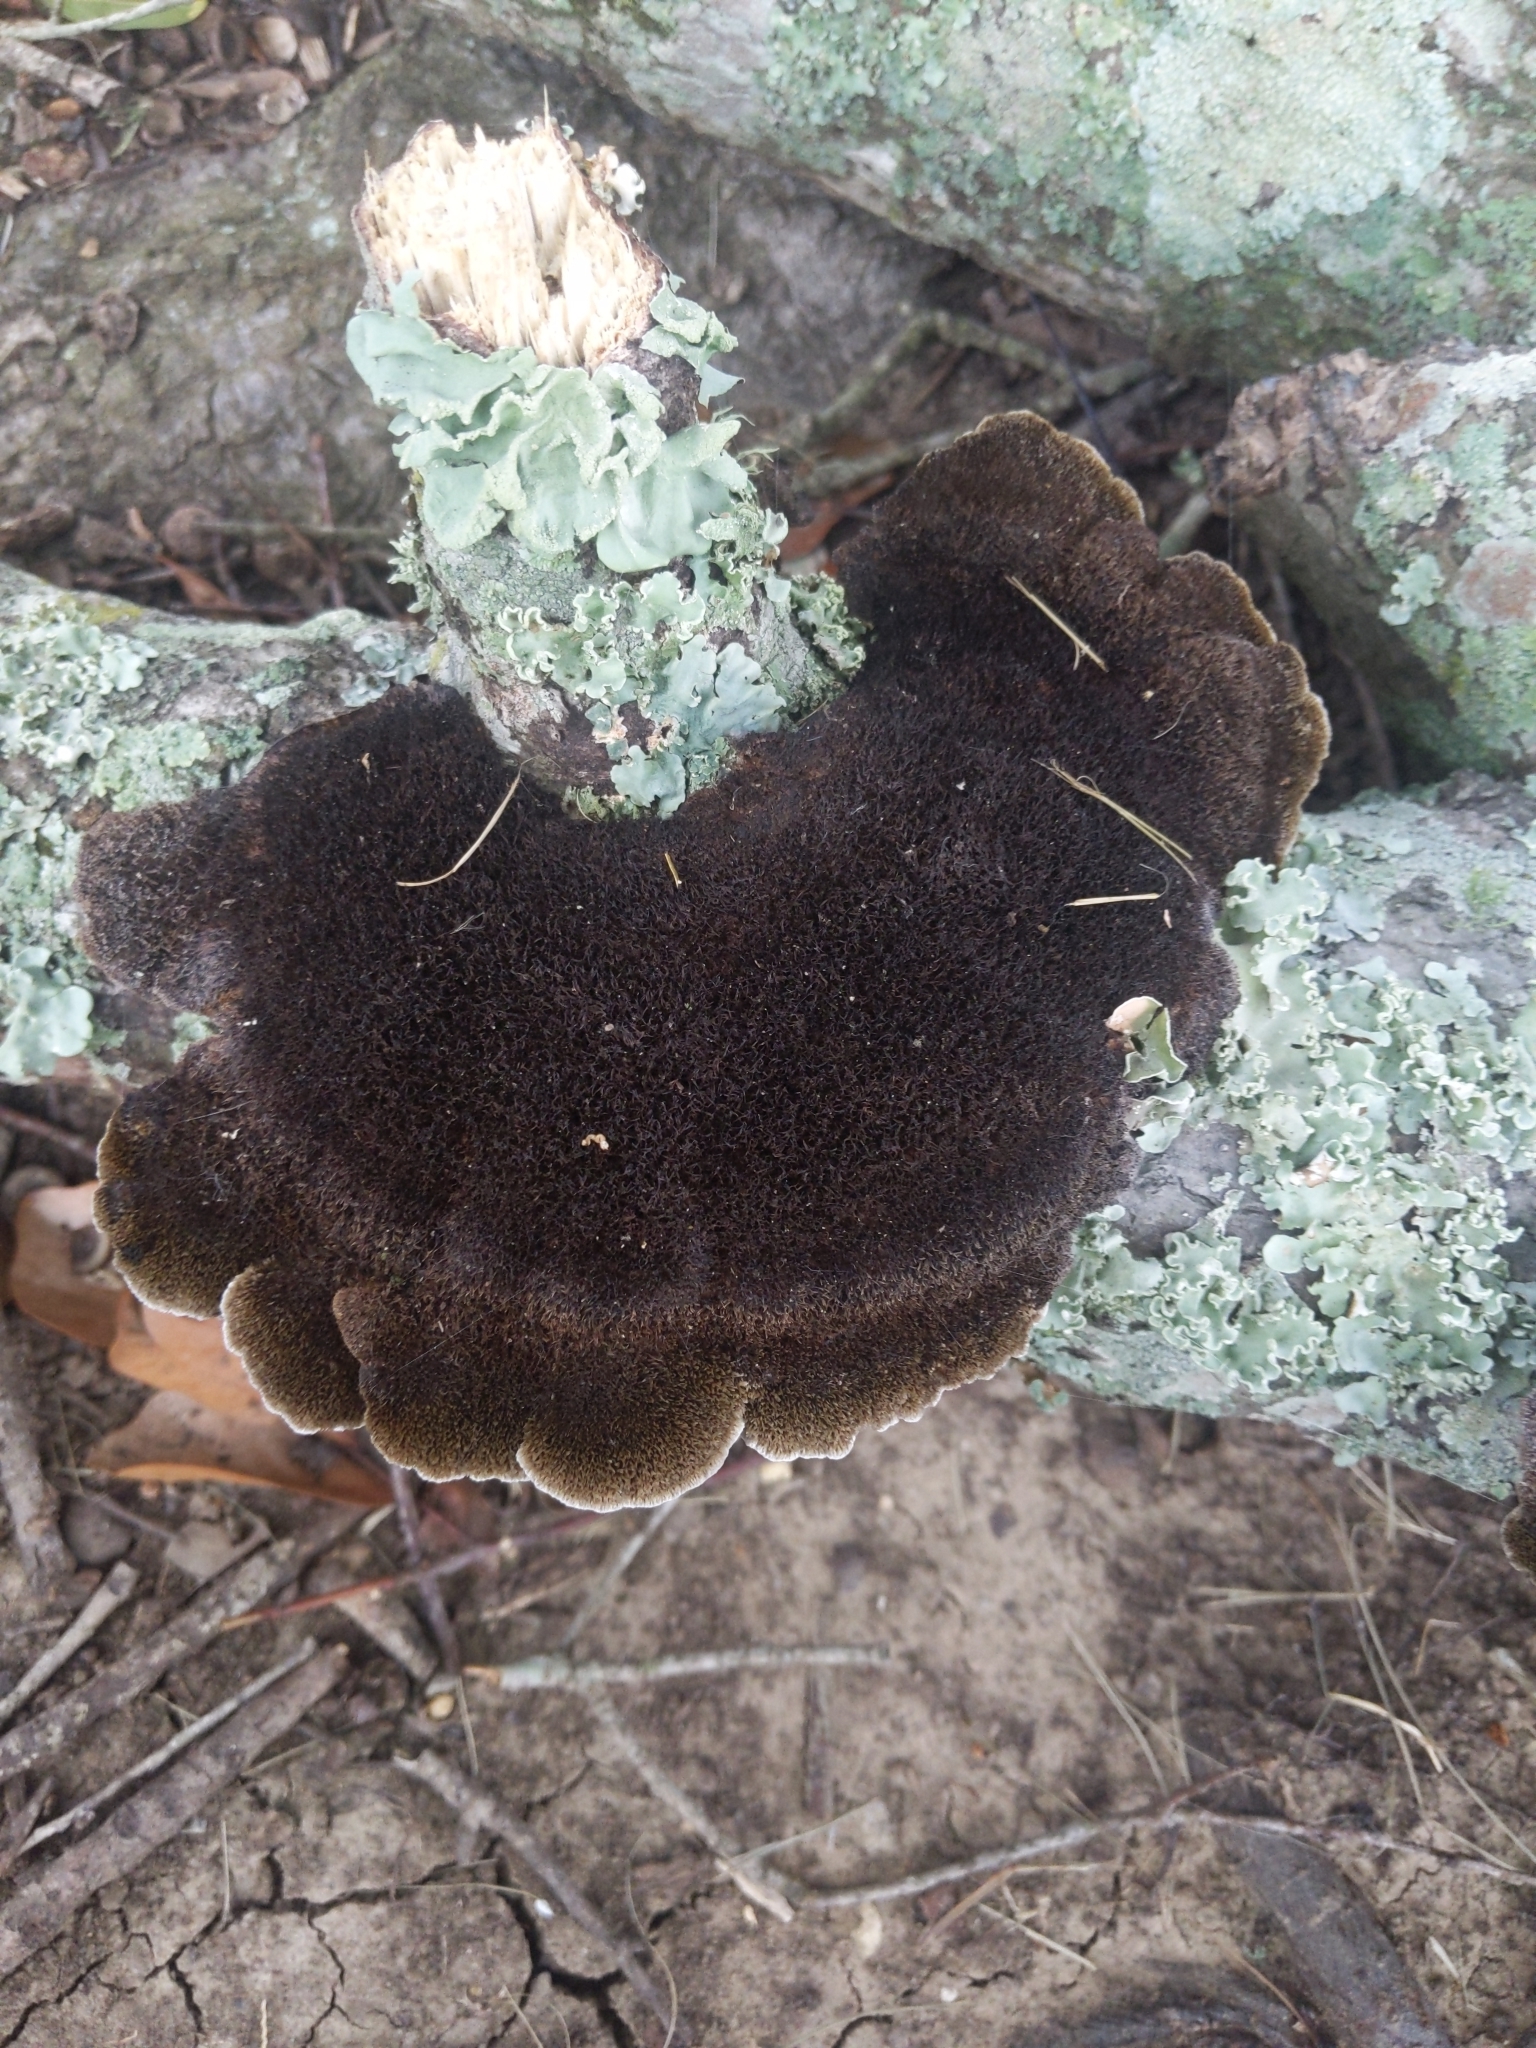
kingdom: Fungi
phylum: Basidiomycota
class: Agaricomycetes
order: Polyporales
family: Cerrenaceae
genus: Cerrena
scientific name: Cerrena hydnoides
